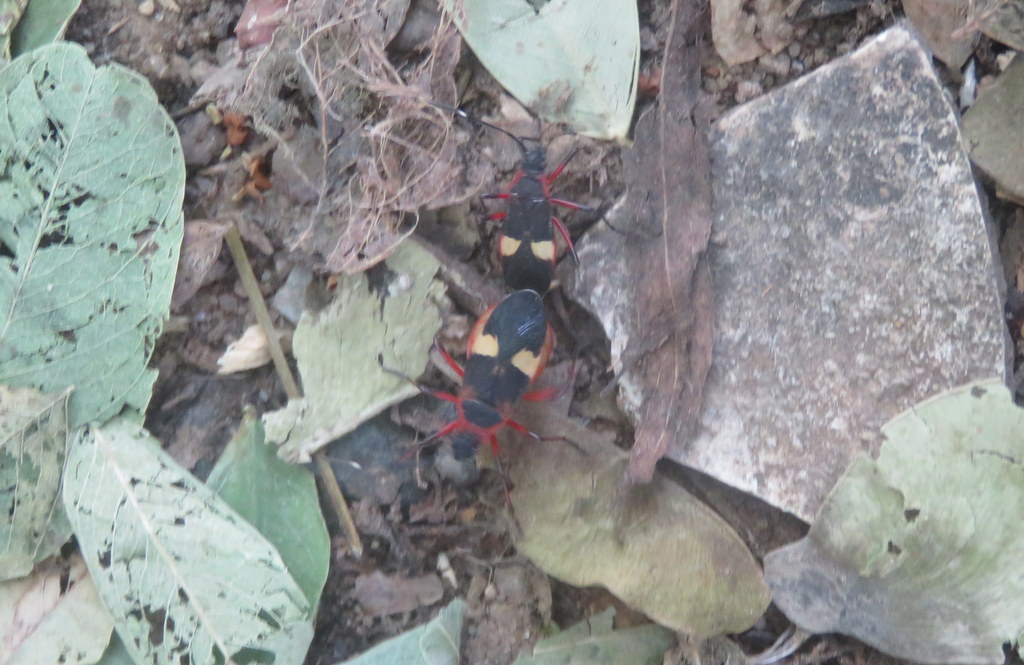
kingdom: Animalia
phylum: Arthropoda
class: Insecta
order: Hemiptera
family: Pyrrhocoridae
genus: Dysdercus
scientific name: Dysdercus albofasciatus
